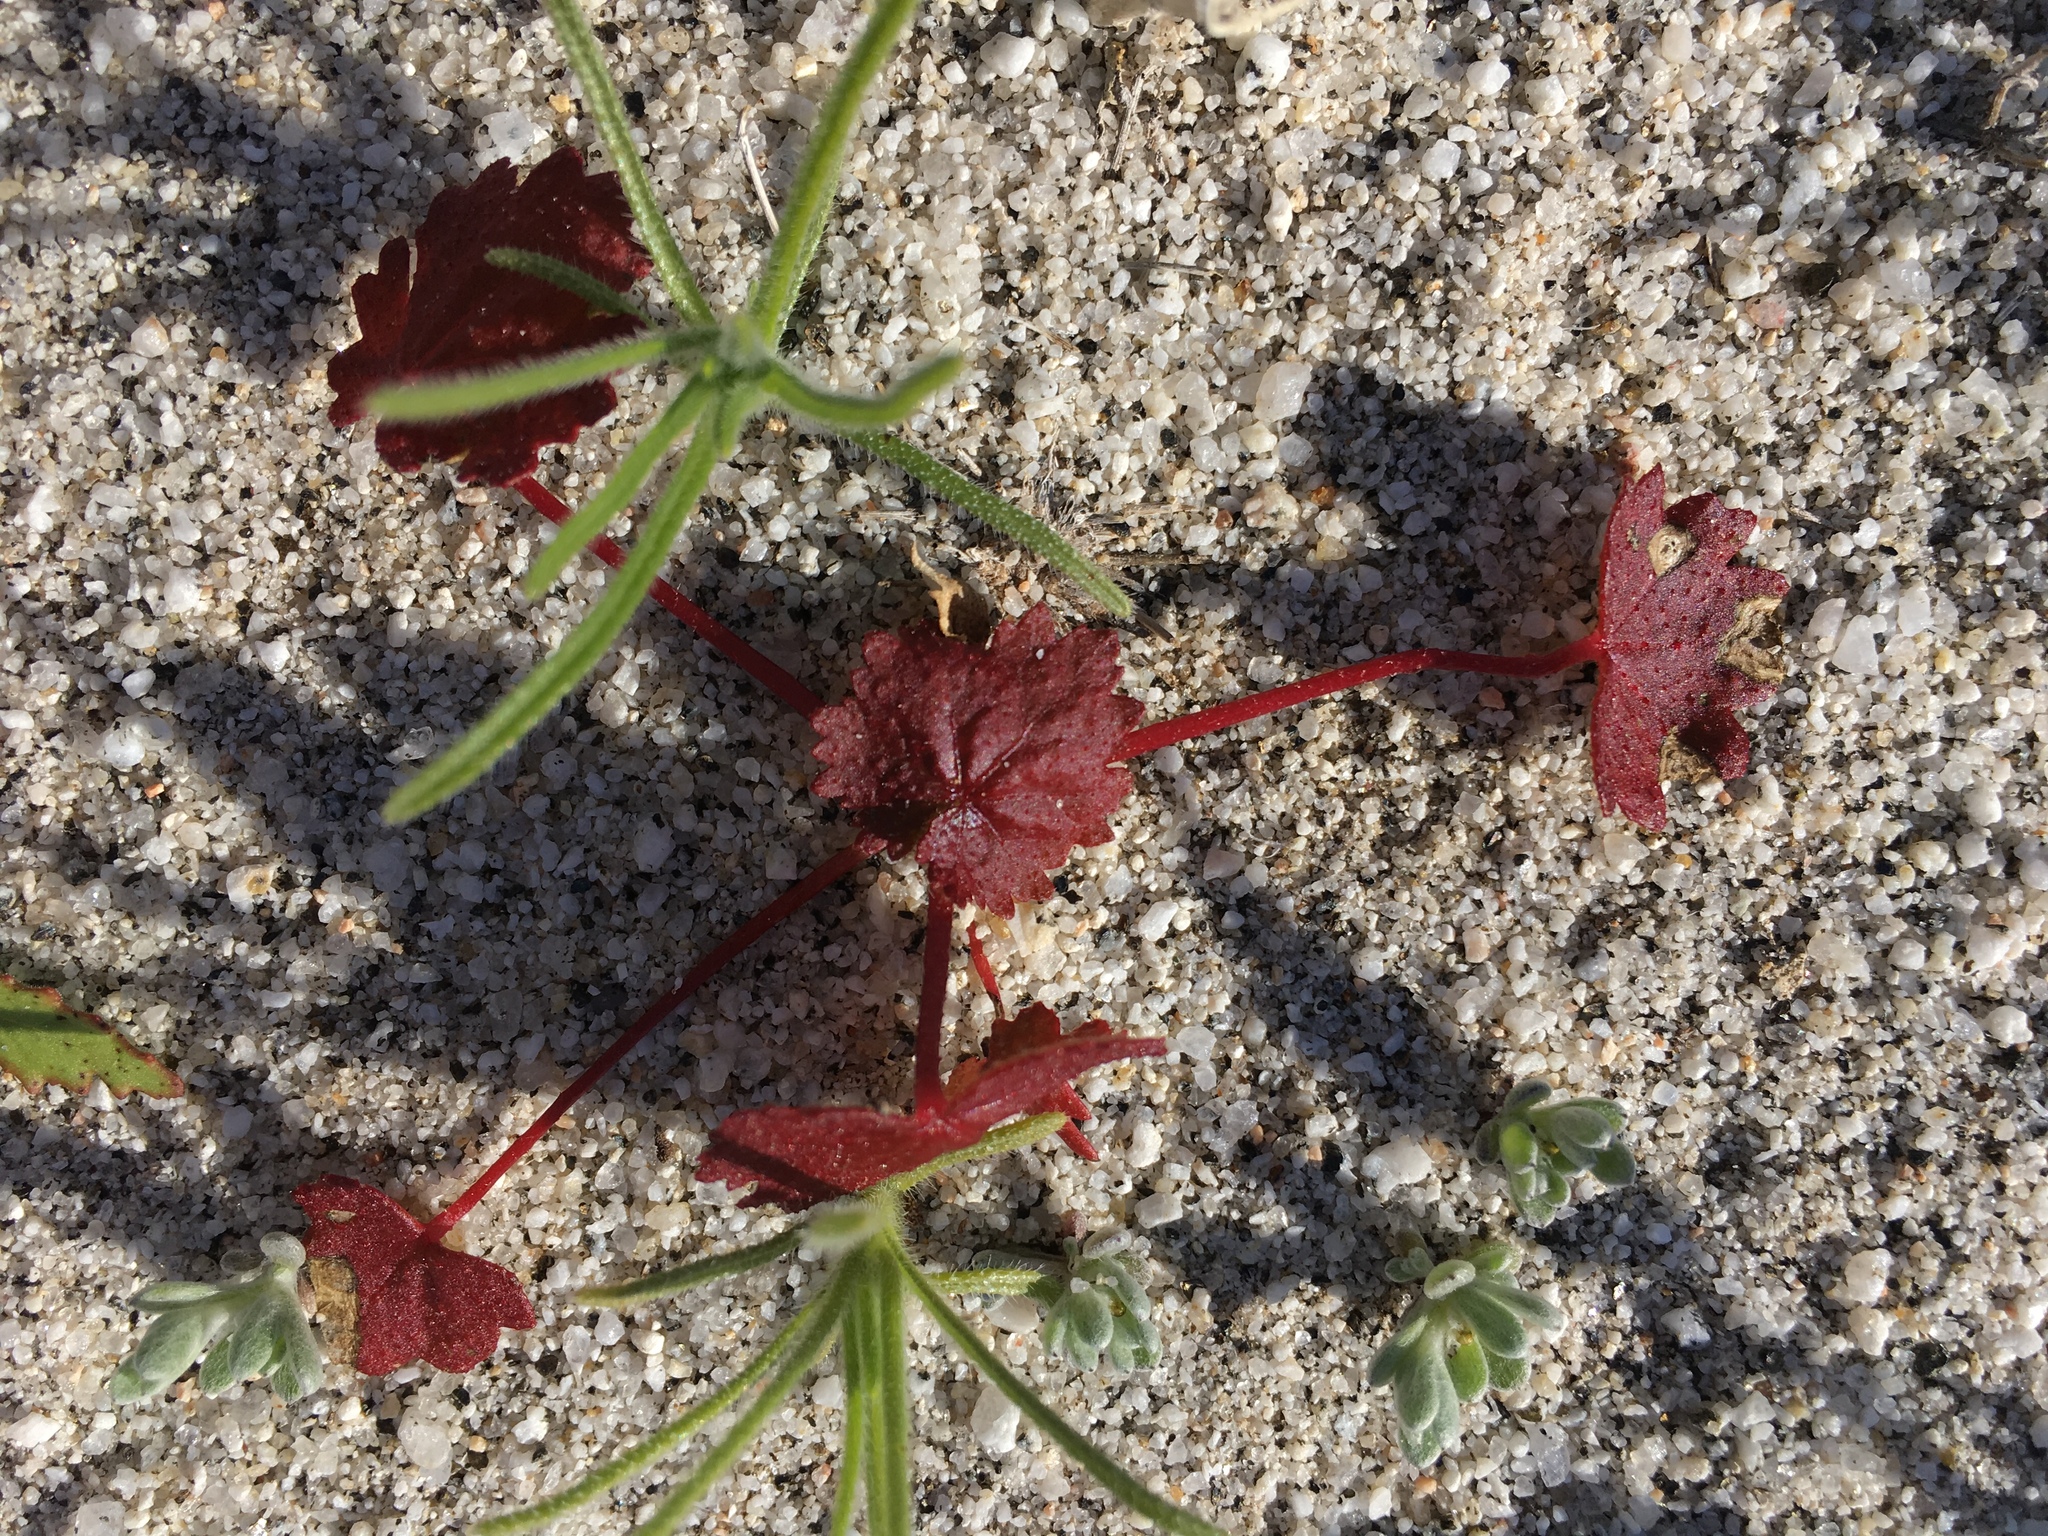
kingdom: Plantae
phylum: Tracheophyta
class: Magnoliopsida
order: Malvales
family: Malvaceae
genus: Eremalche
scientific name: Eremalche rotundifolia
